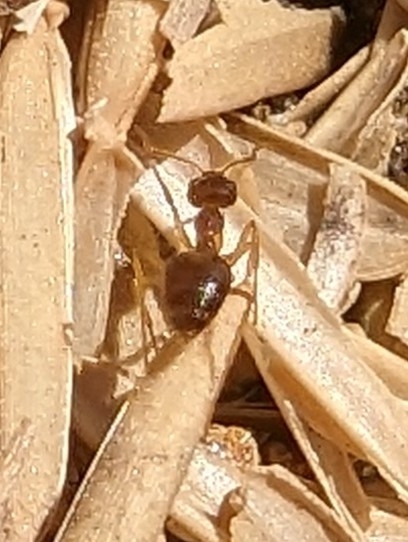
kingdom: Animalia
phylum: Arthropoda
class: Insecta
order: Hymenoptera
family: Formicidae
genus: Prenolepis
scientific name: Prenolepis imparis
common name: Small honey ant
